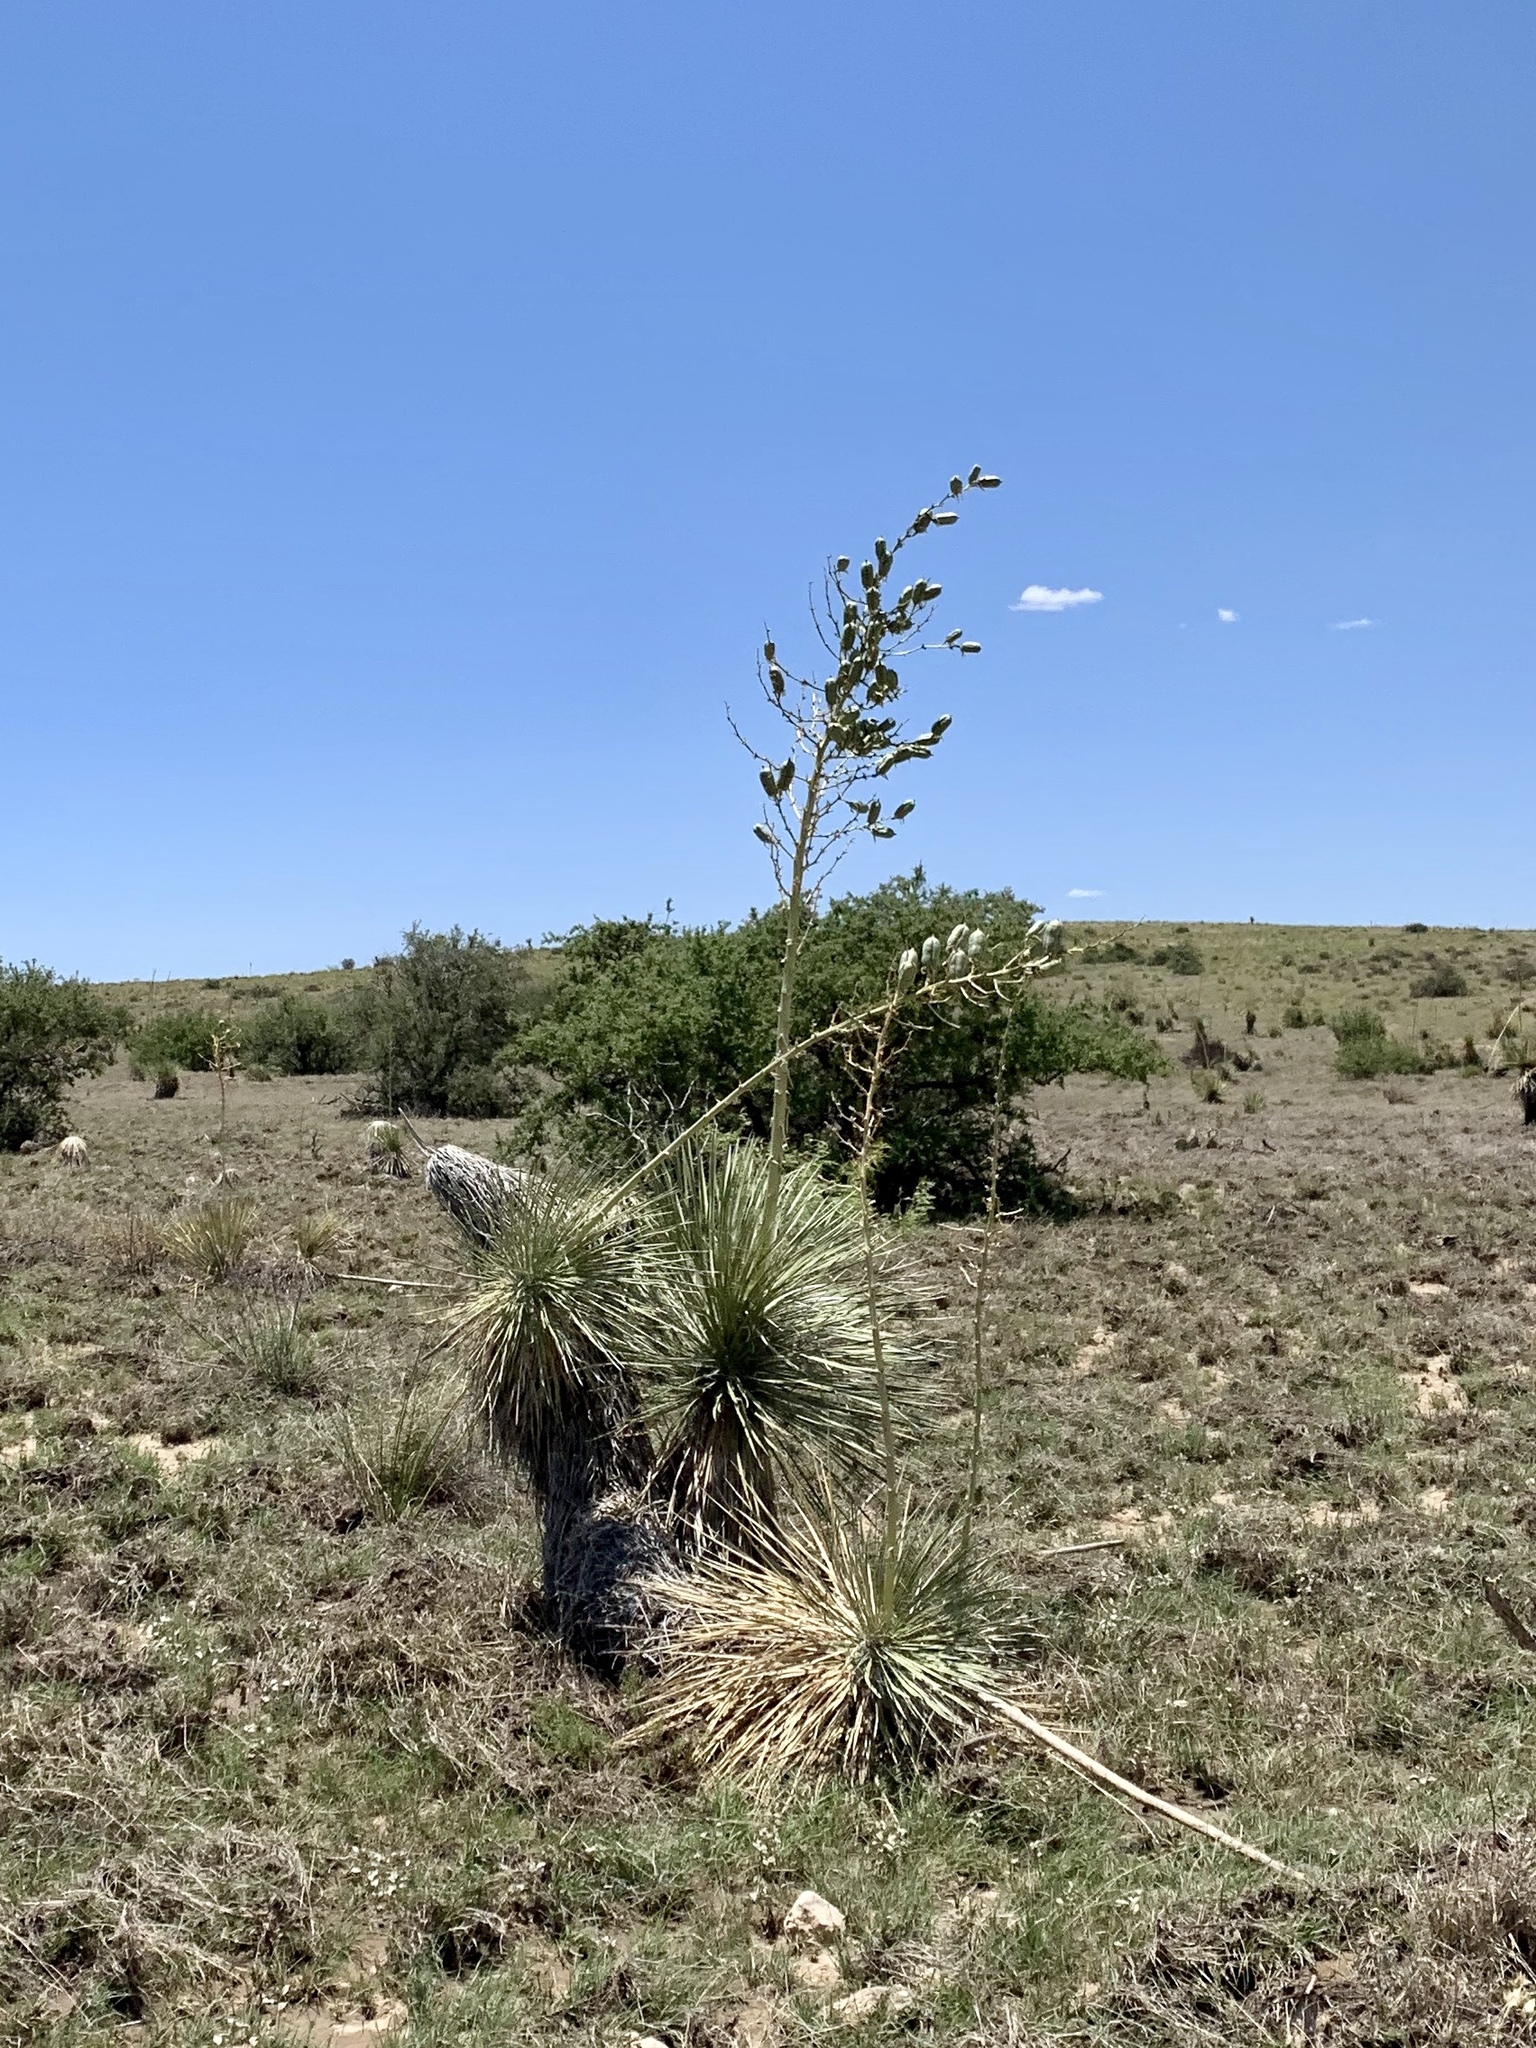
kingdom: Plantae
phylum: Tracheophyta
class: Liliopsida
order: Asparagales
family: Asparagaceae
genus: Yucca
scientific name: Yucca elata
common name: Palmella
